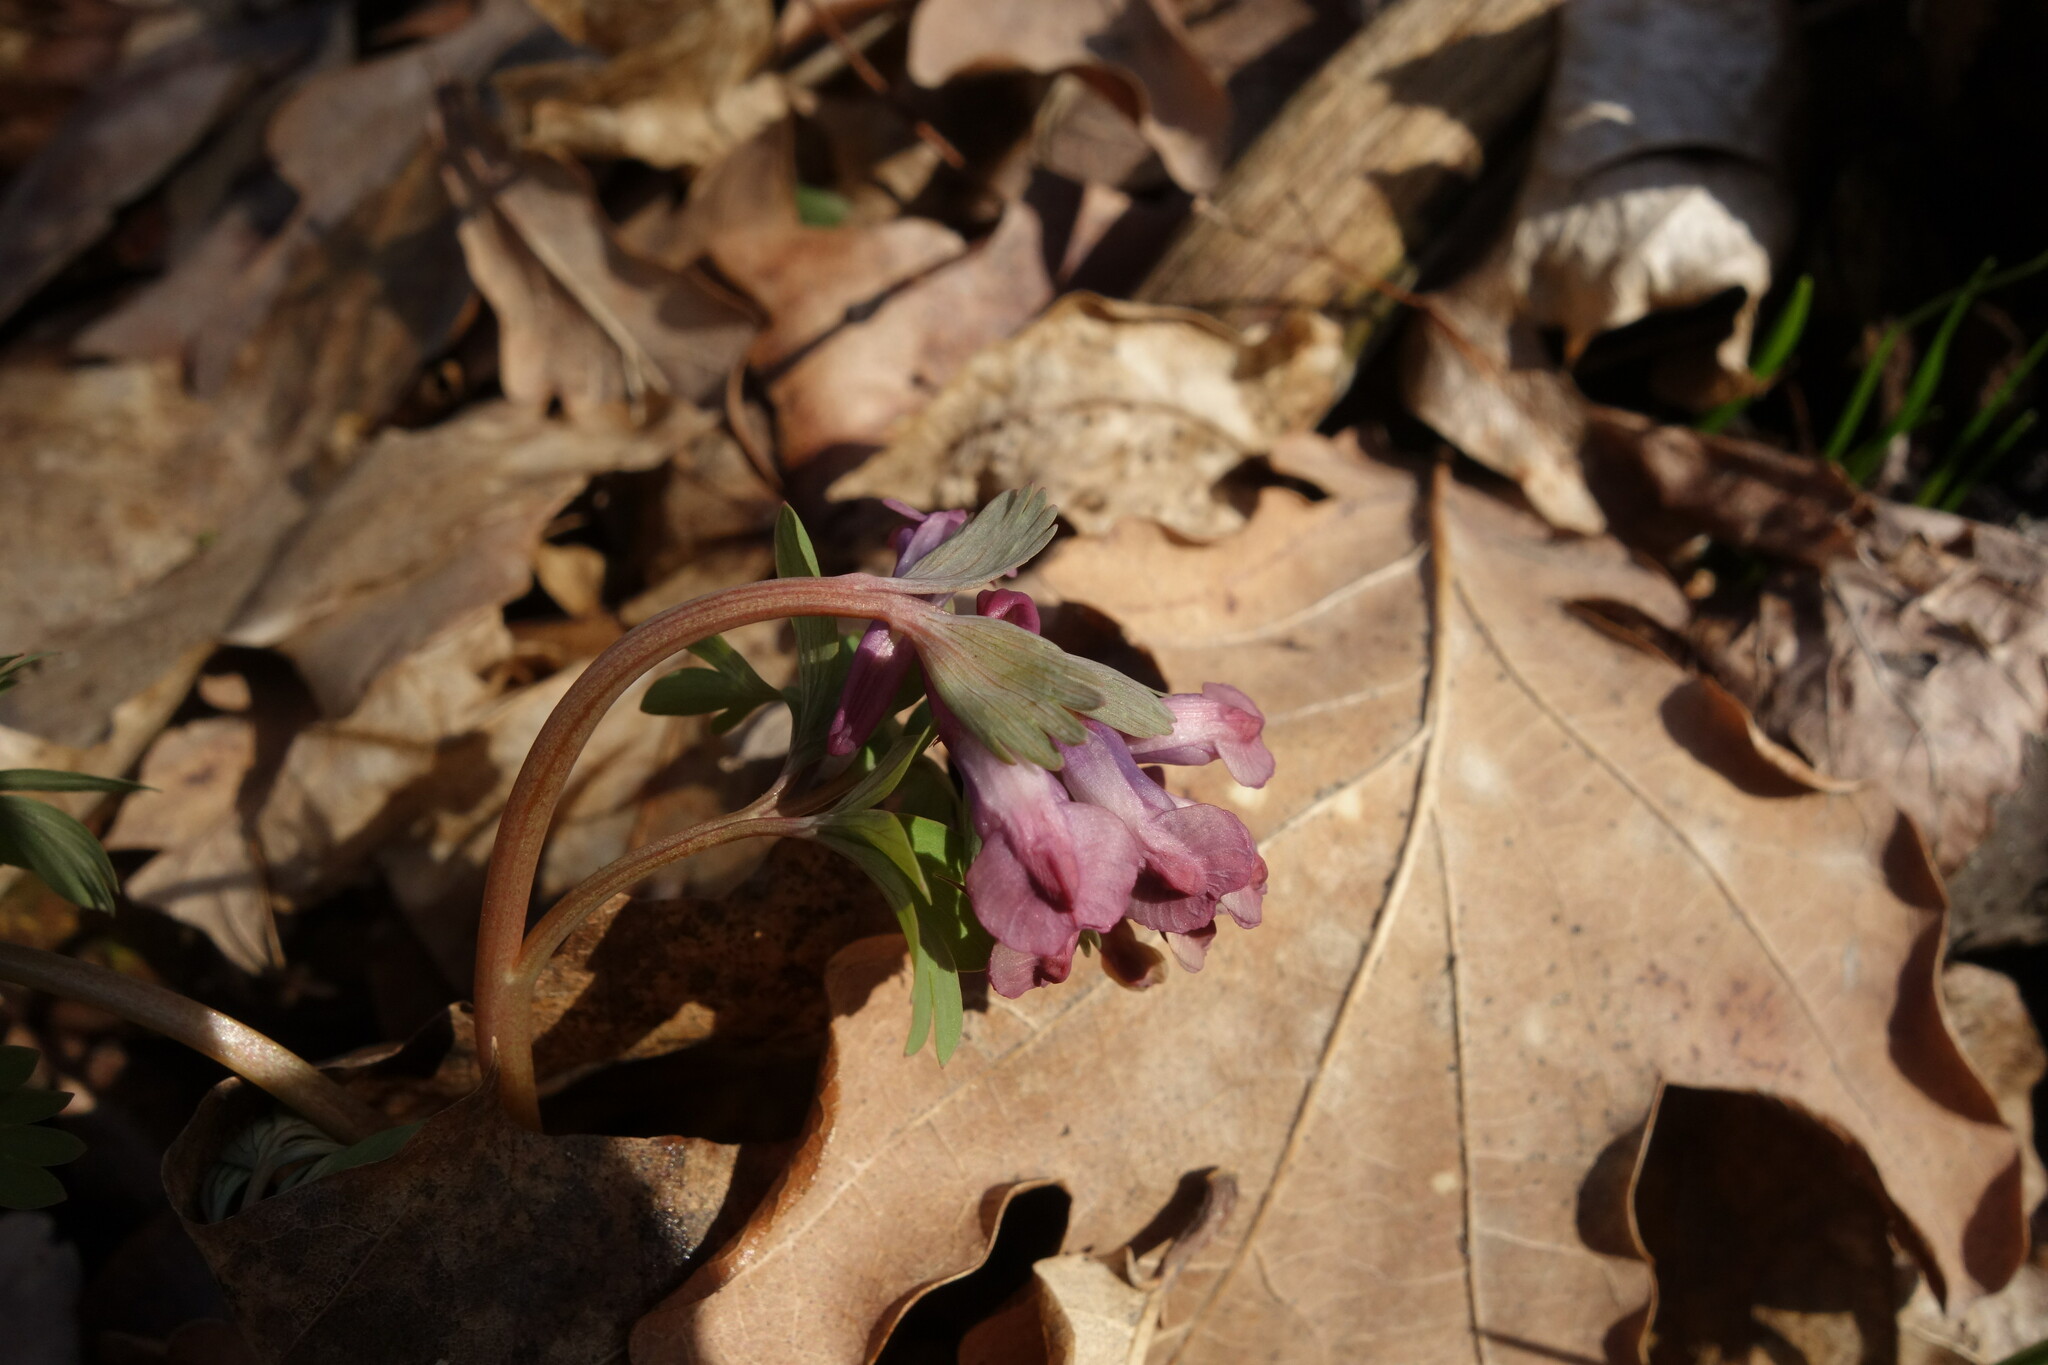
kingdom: Plantae
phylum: Tracheophyta
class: Magnoliopsida
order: Ranunculales
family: Papaveraceae
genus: Corydalis
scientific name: Corydalis solida
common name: Bird-in-a-bush
